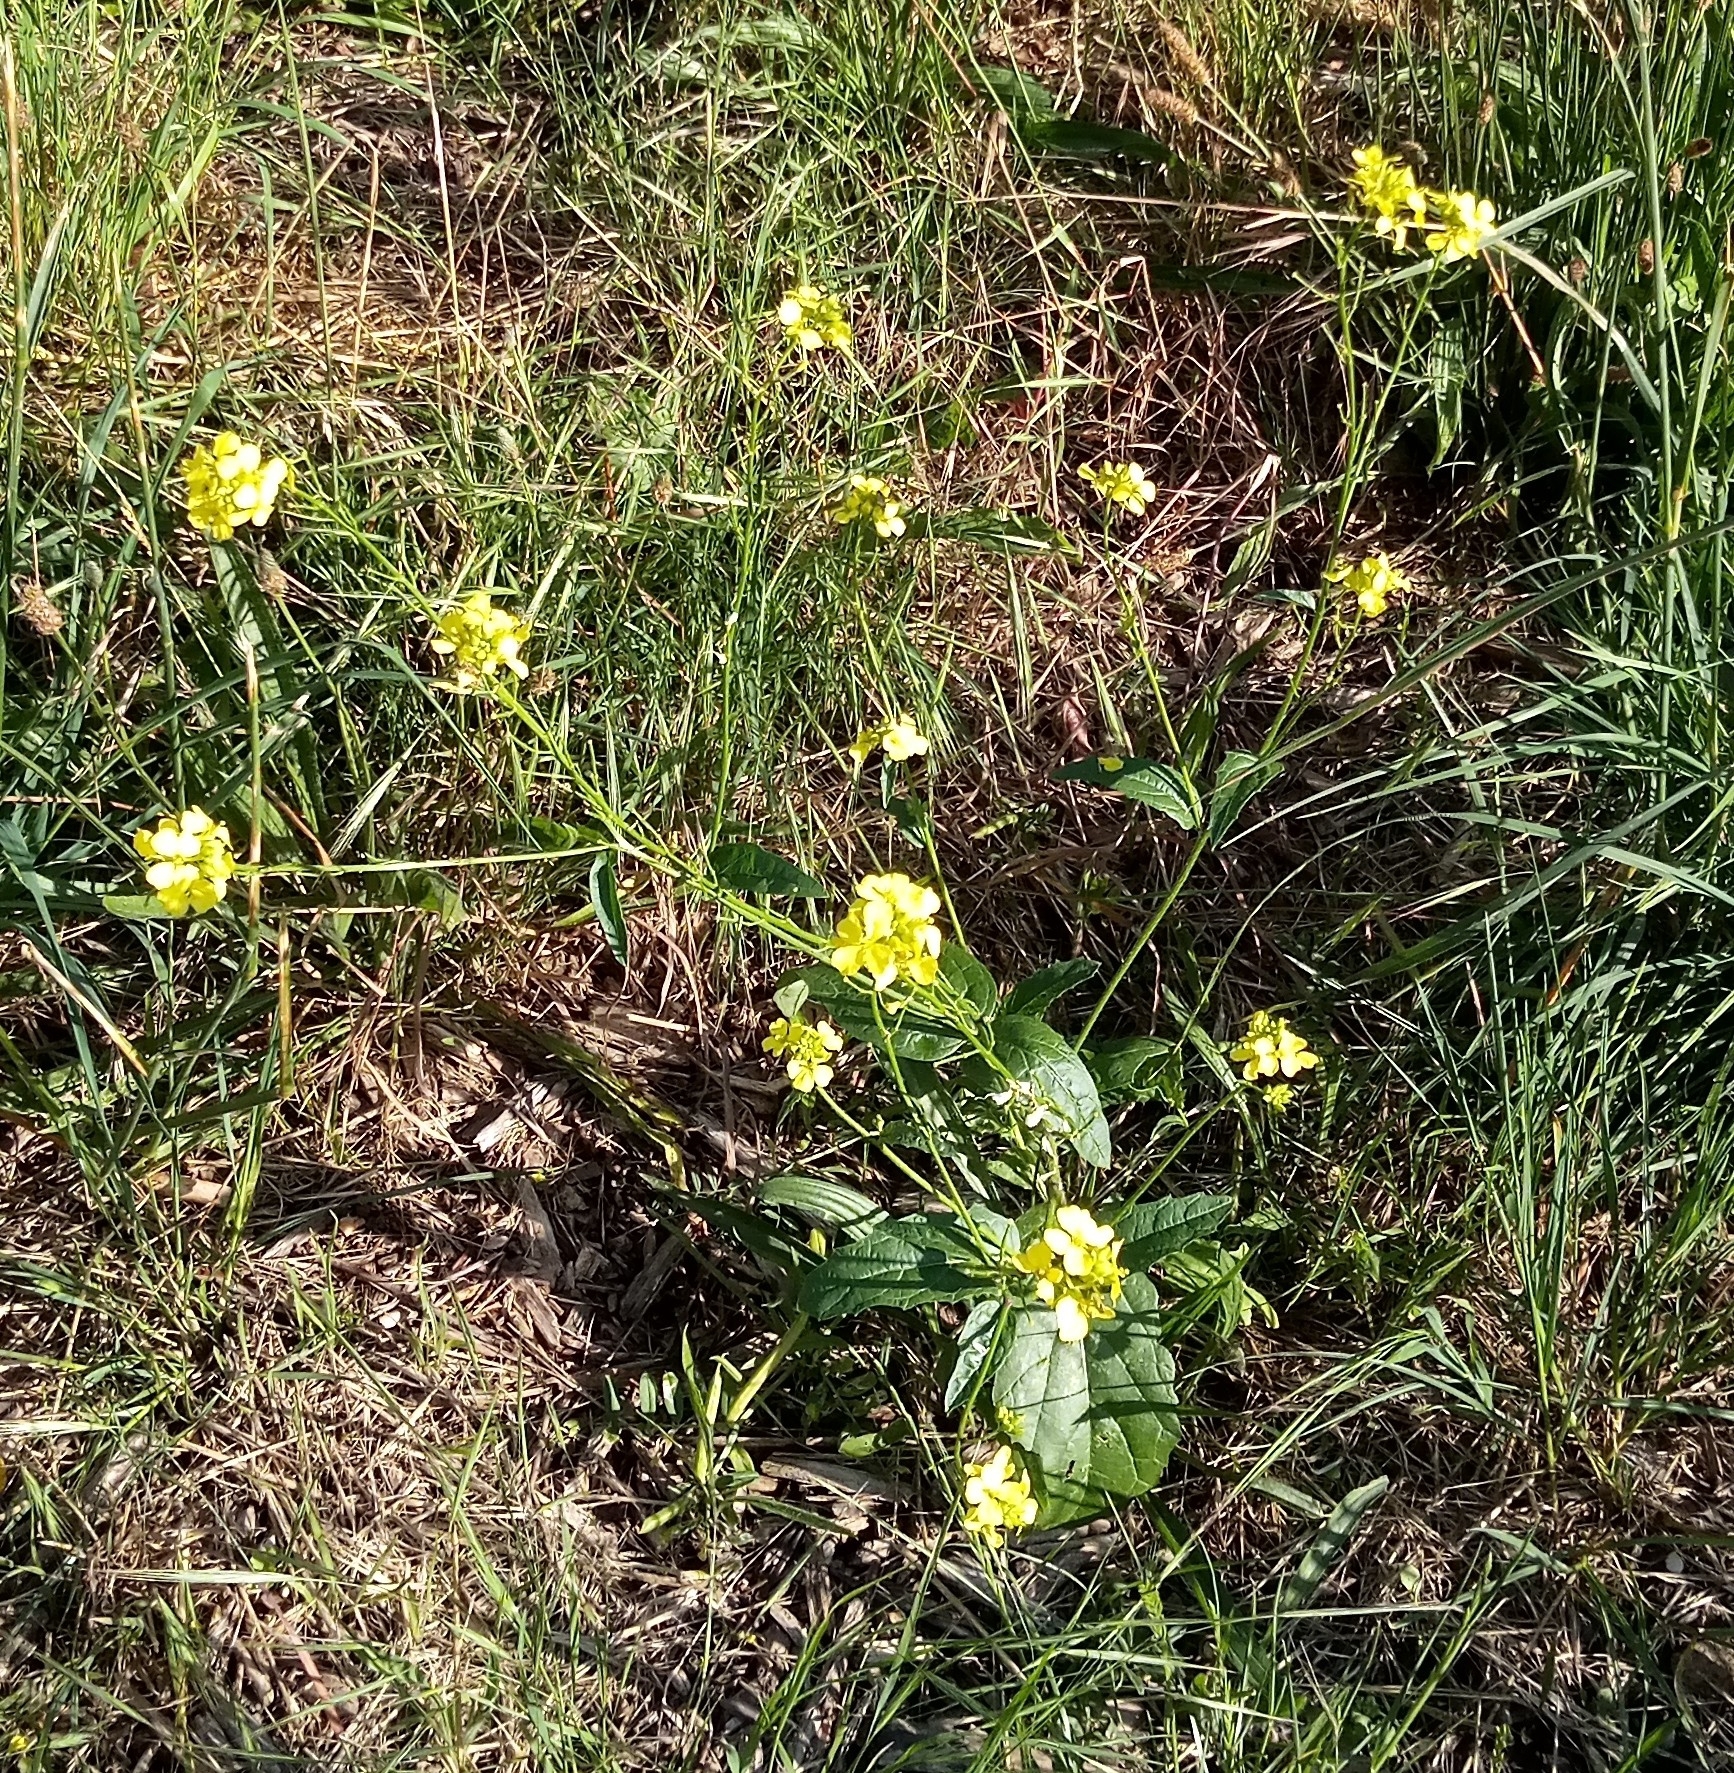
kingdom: Plantae
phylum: Tracheophyta
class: Magnoliopsida
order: Brassicales
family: Brassicaceae
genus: Sinapis
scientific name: Sinapis arvensis
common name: Charlock
